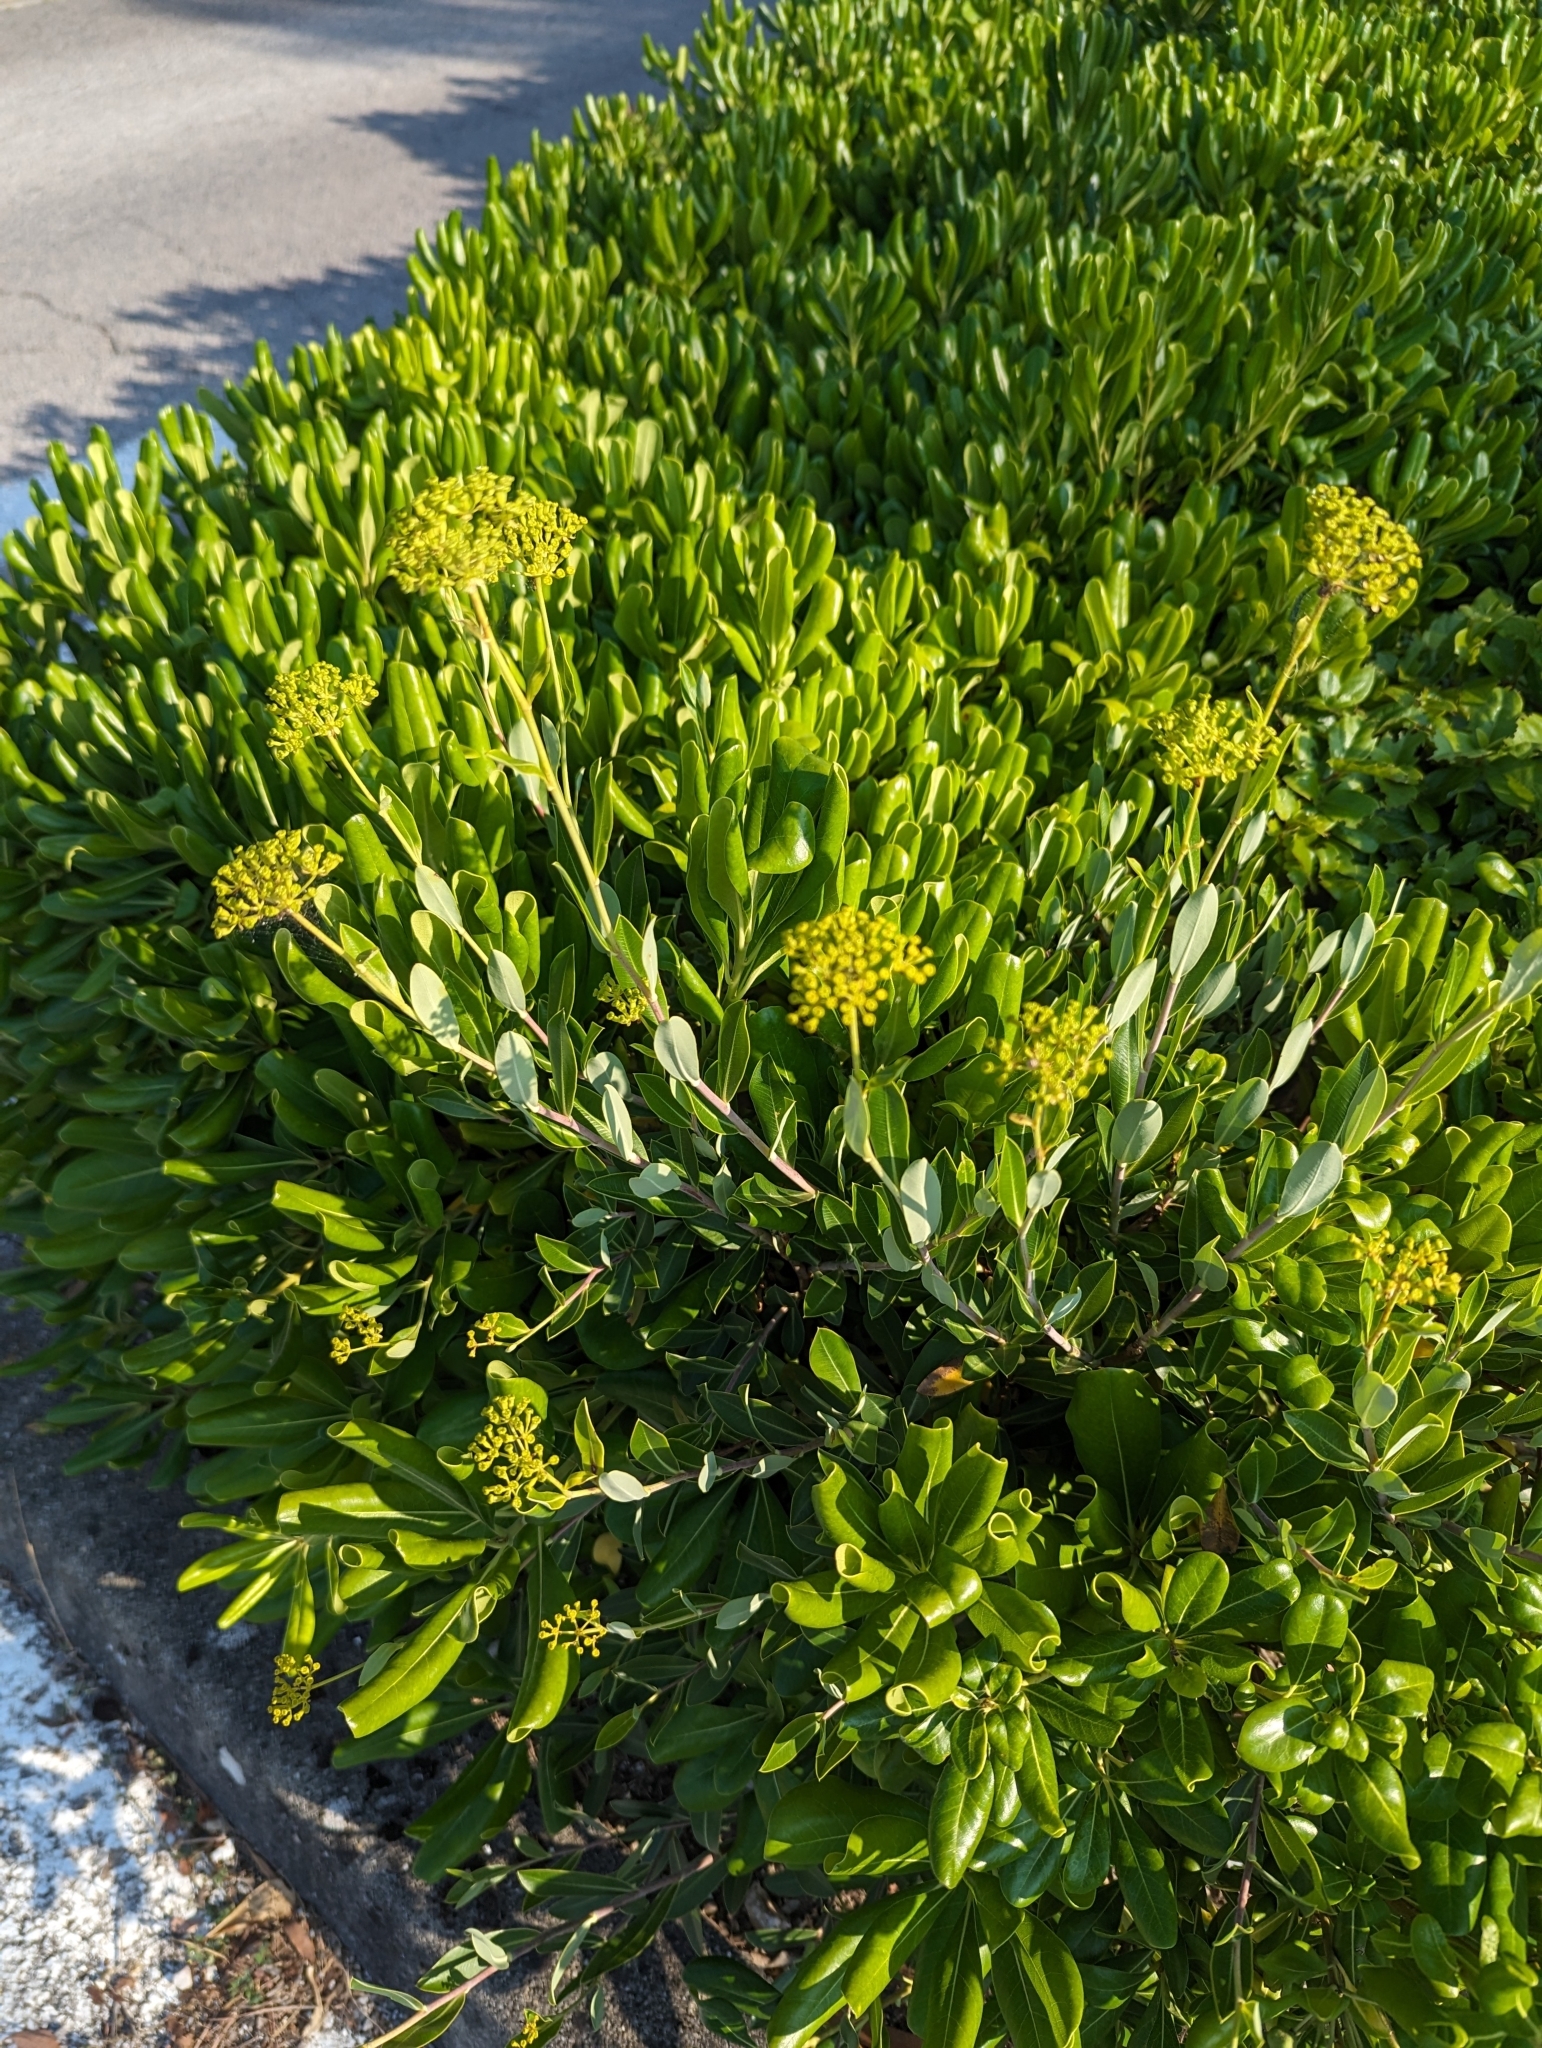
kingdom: Plantae
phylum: Tracheophyta
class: Magnoliopsida
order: Apiales
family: Apiaceae
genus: Bupleurum
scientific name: Bupleurum fruticosum
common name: Shrubby hare's-ear
